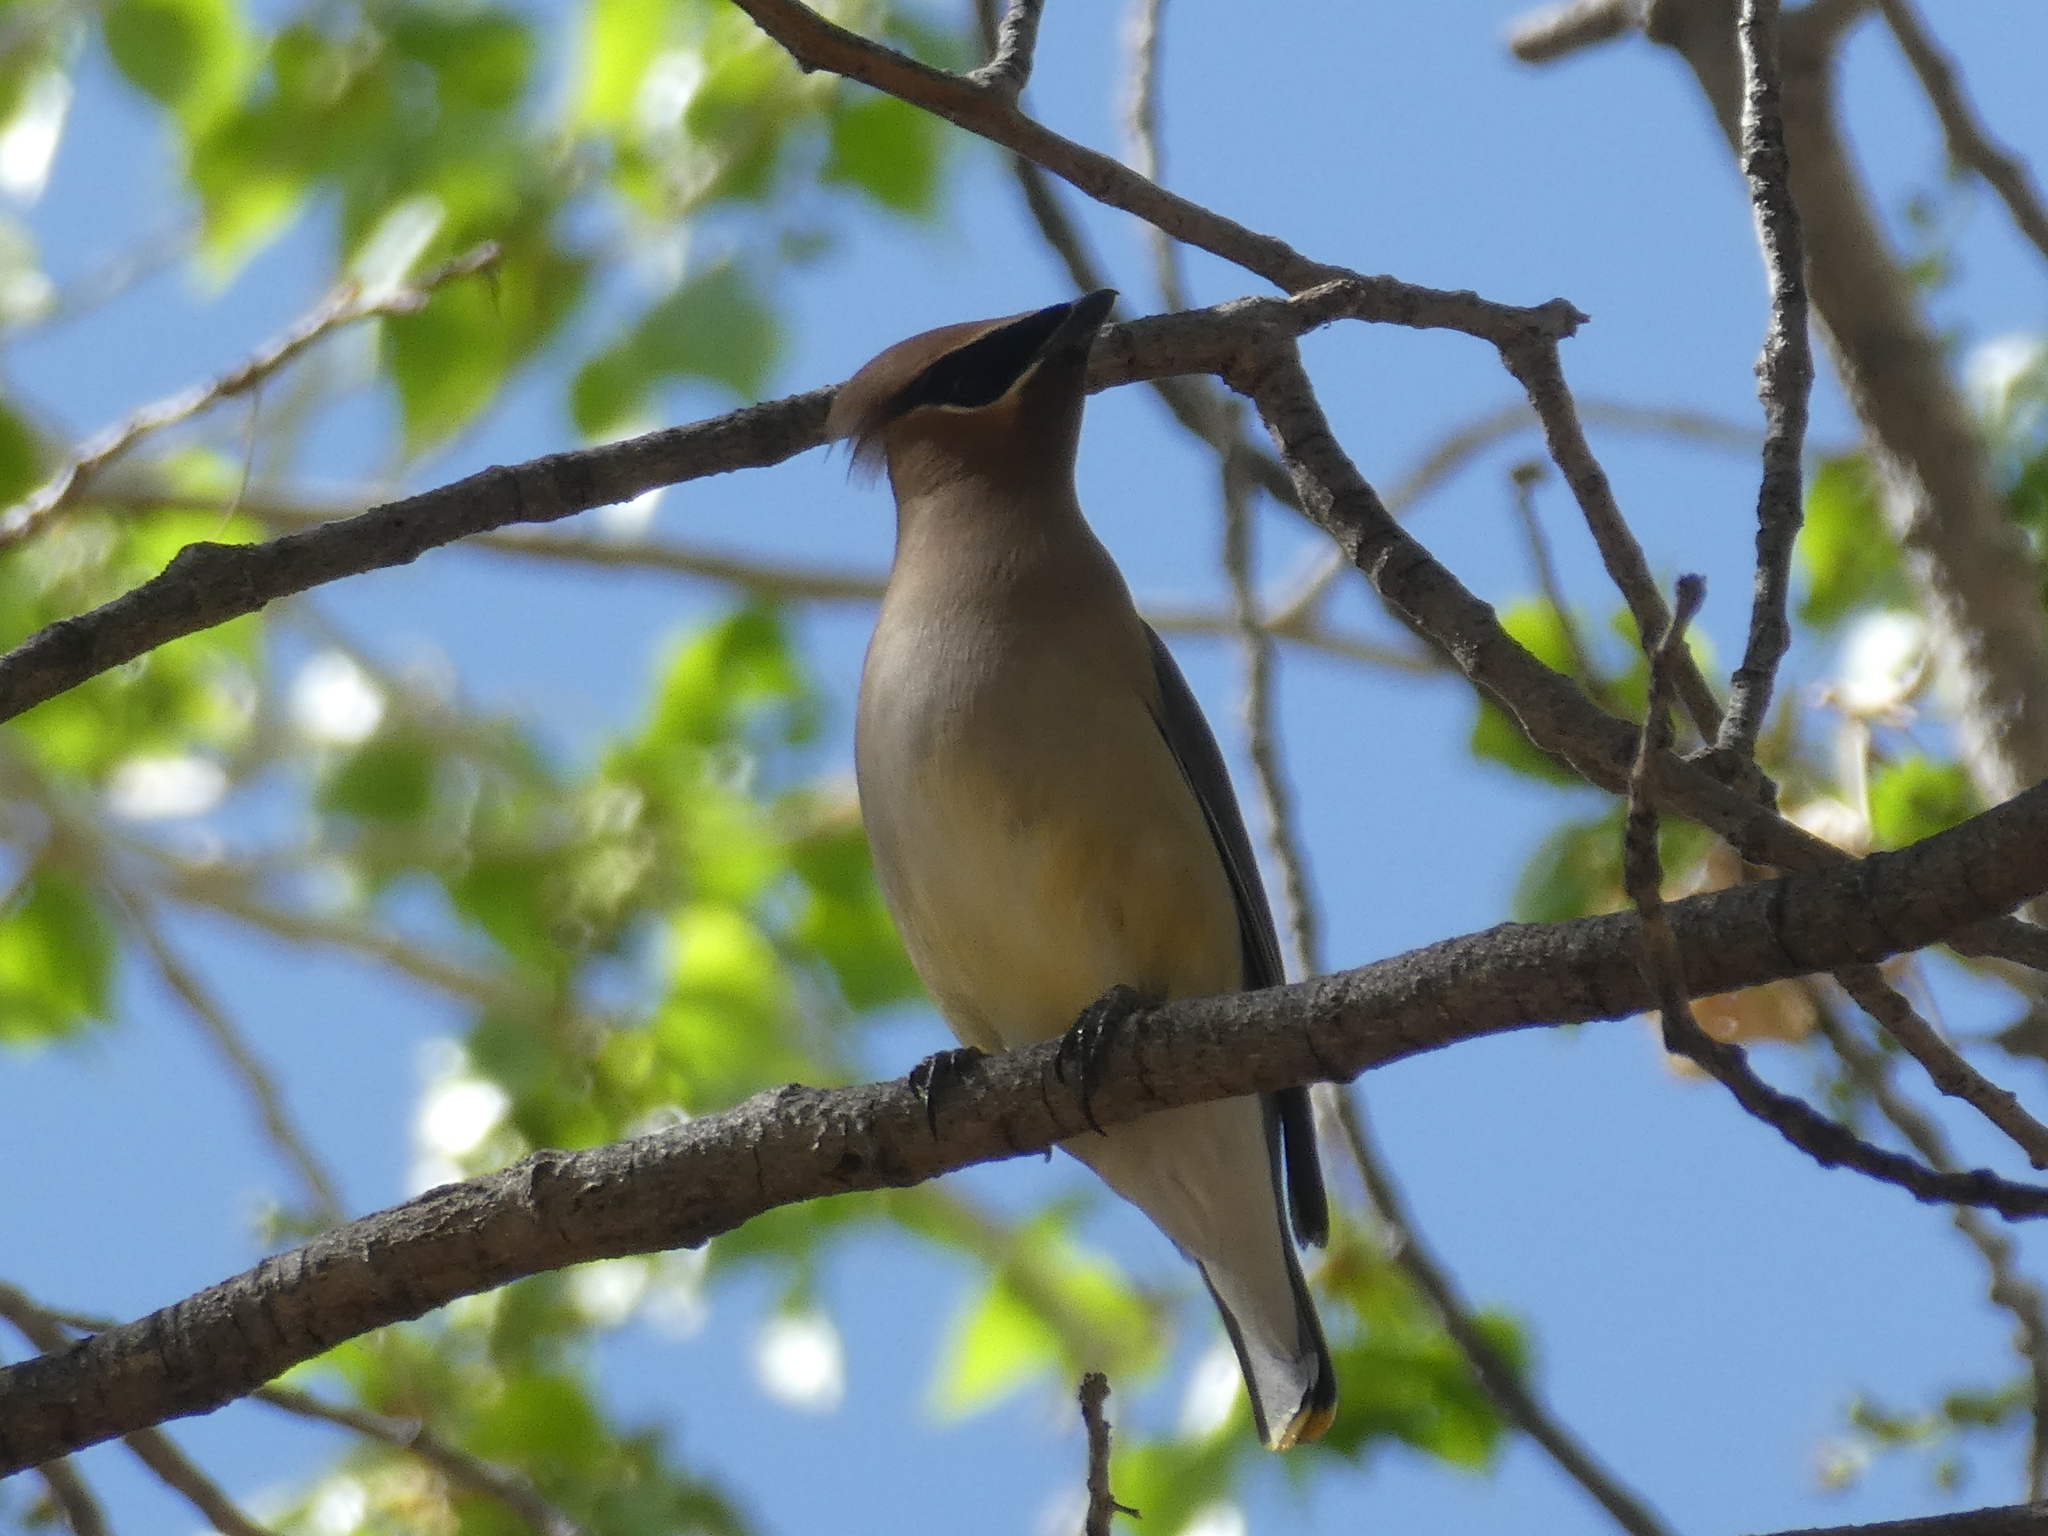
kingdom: Animalia
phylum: Chordata
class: Aves
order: Passeriformes
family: Bombycillidae
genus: Bombycilla
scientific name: Bombycilla cedrorum
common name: Cedar waxwing
